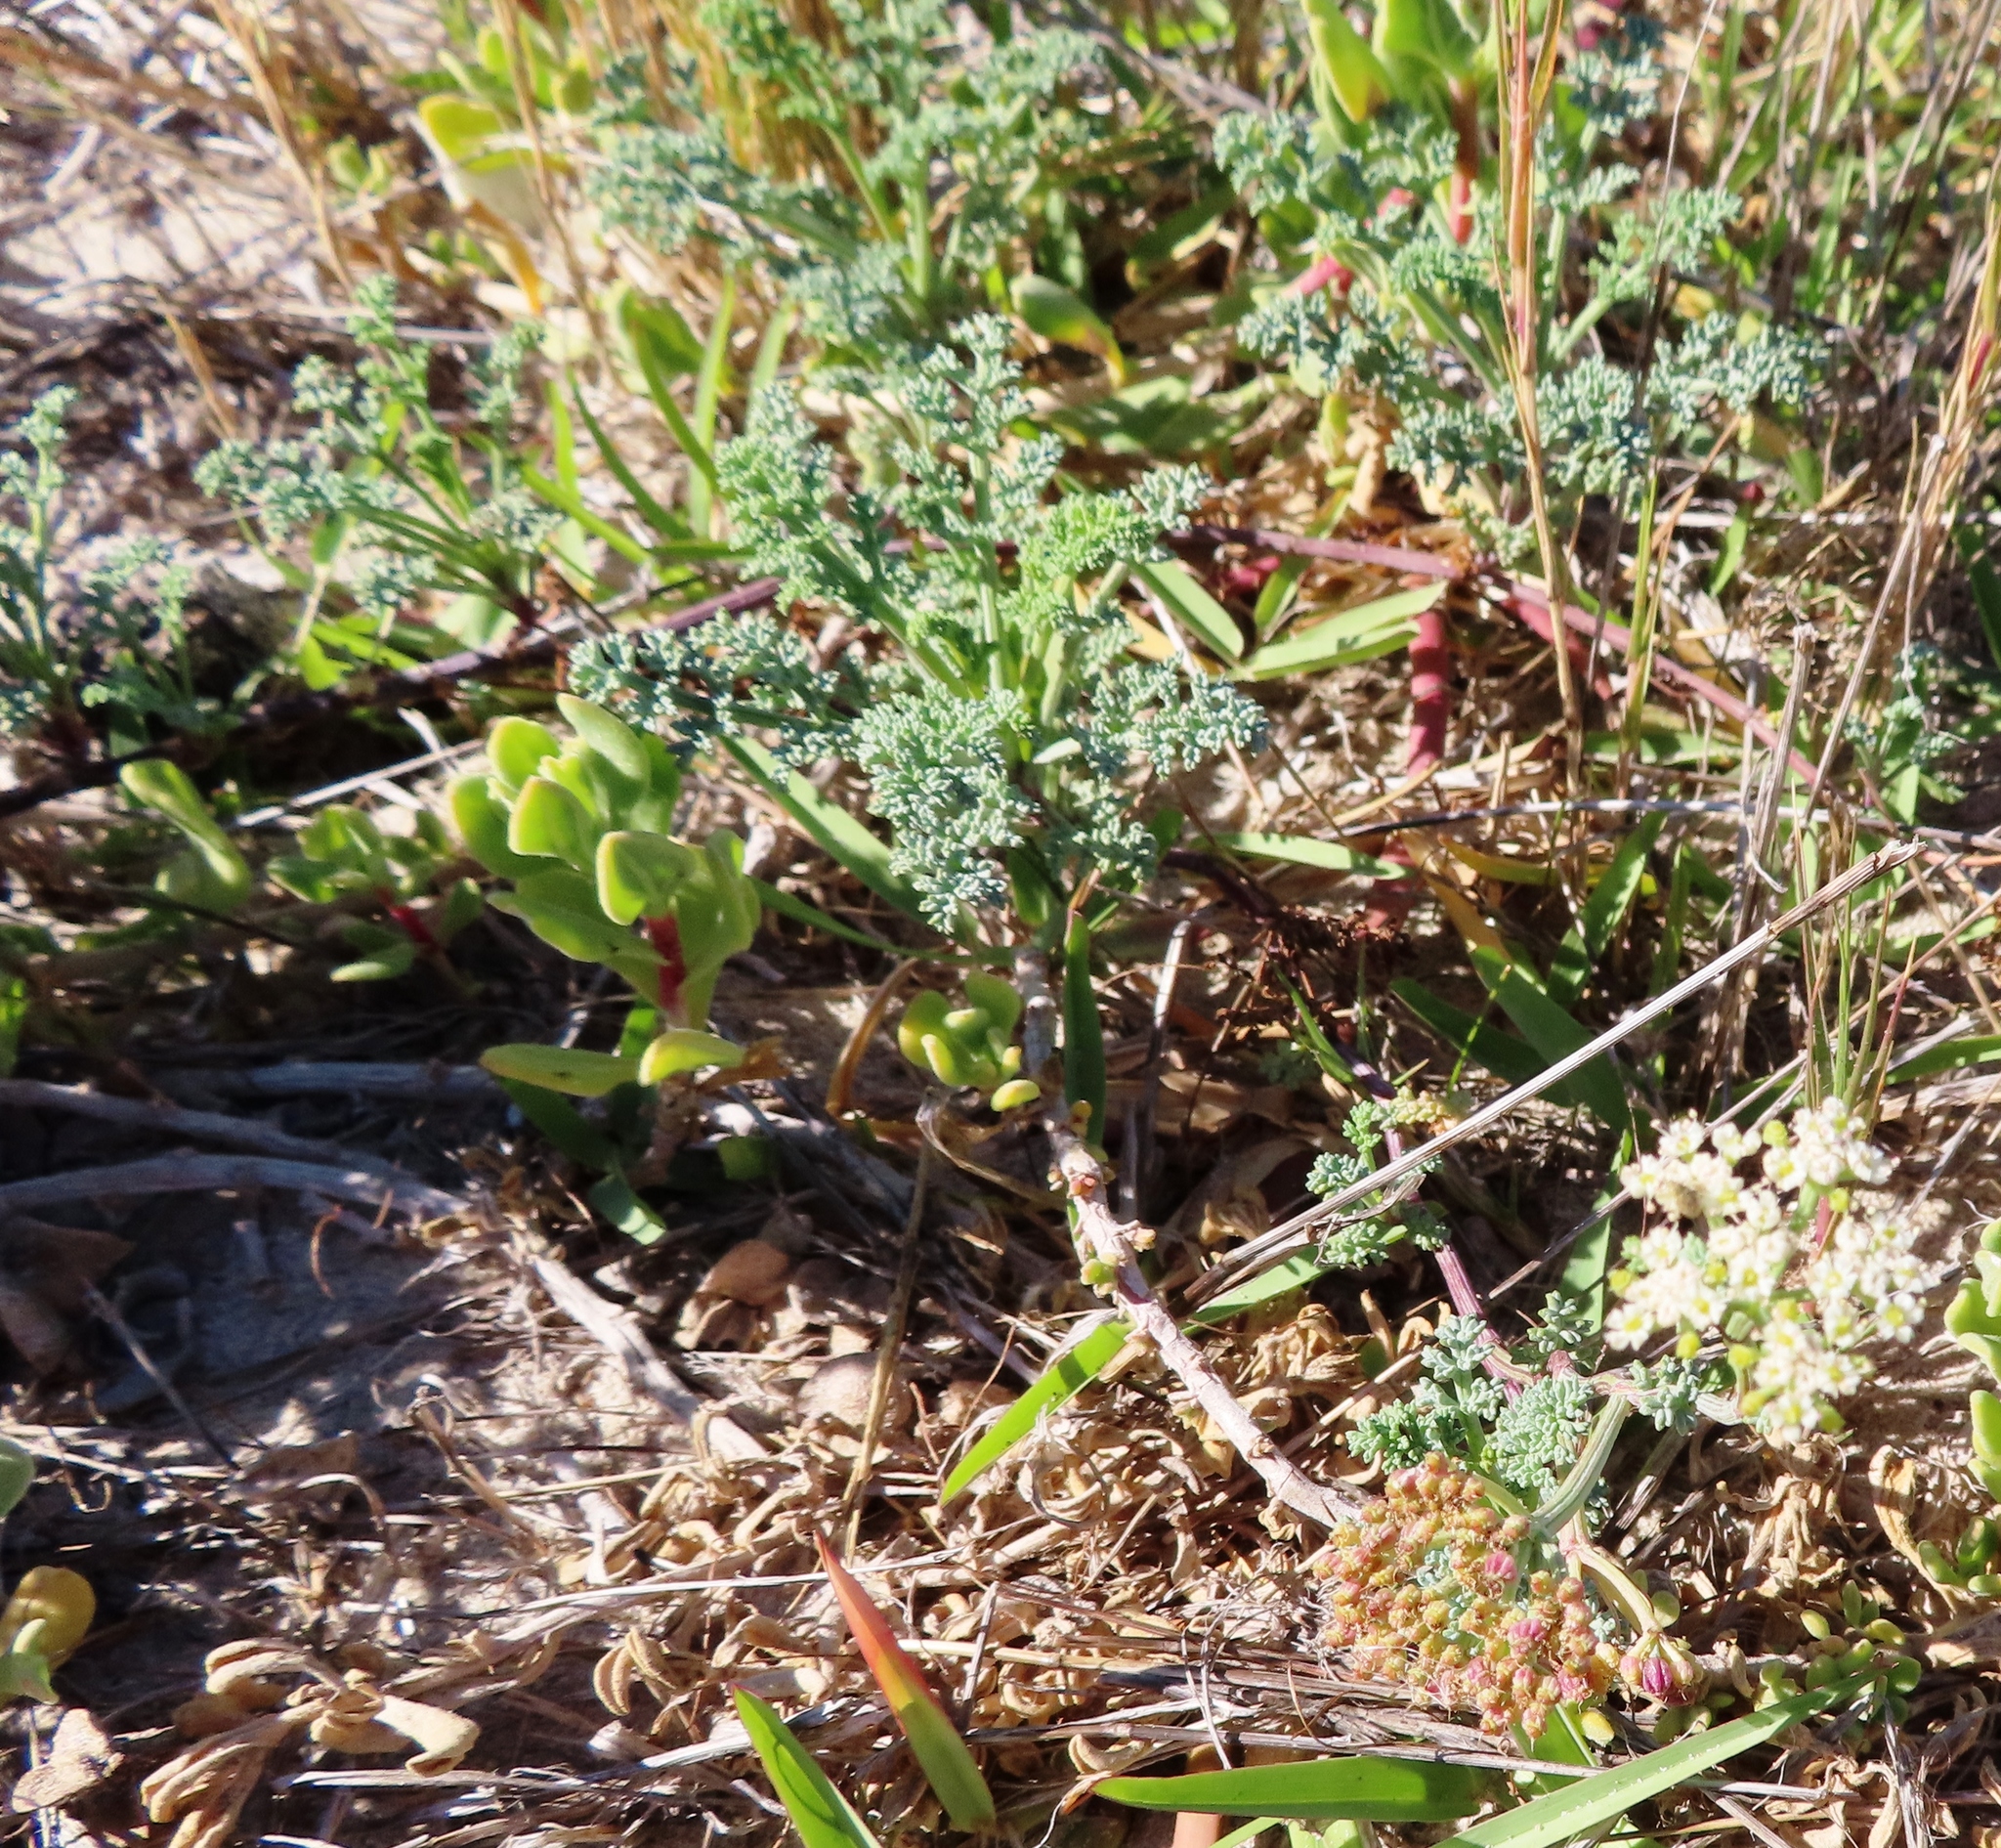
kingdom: Plantae
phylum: Tracheophyta
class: Magnoliopsida
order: Apiales
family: Apiaceae
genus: Dasispermum
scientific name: Dasispermum suffruticosum
